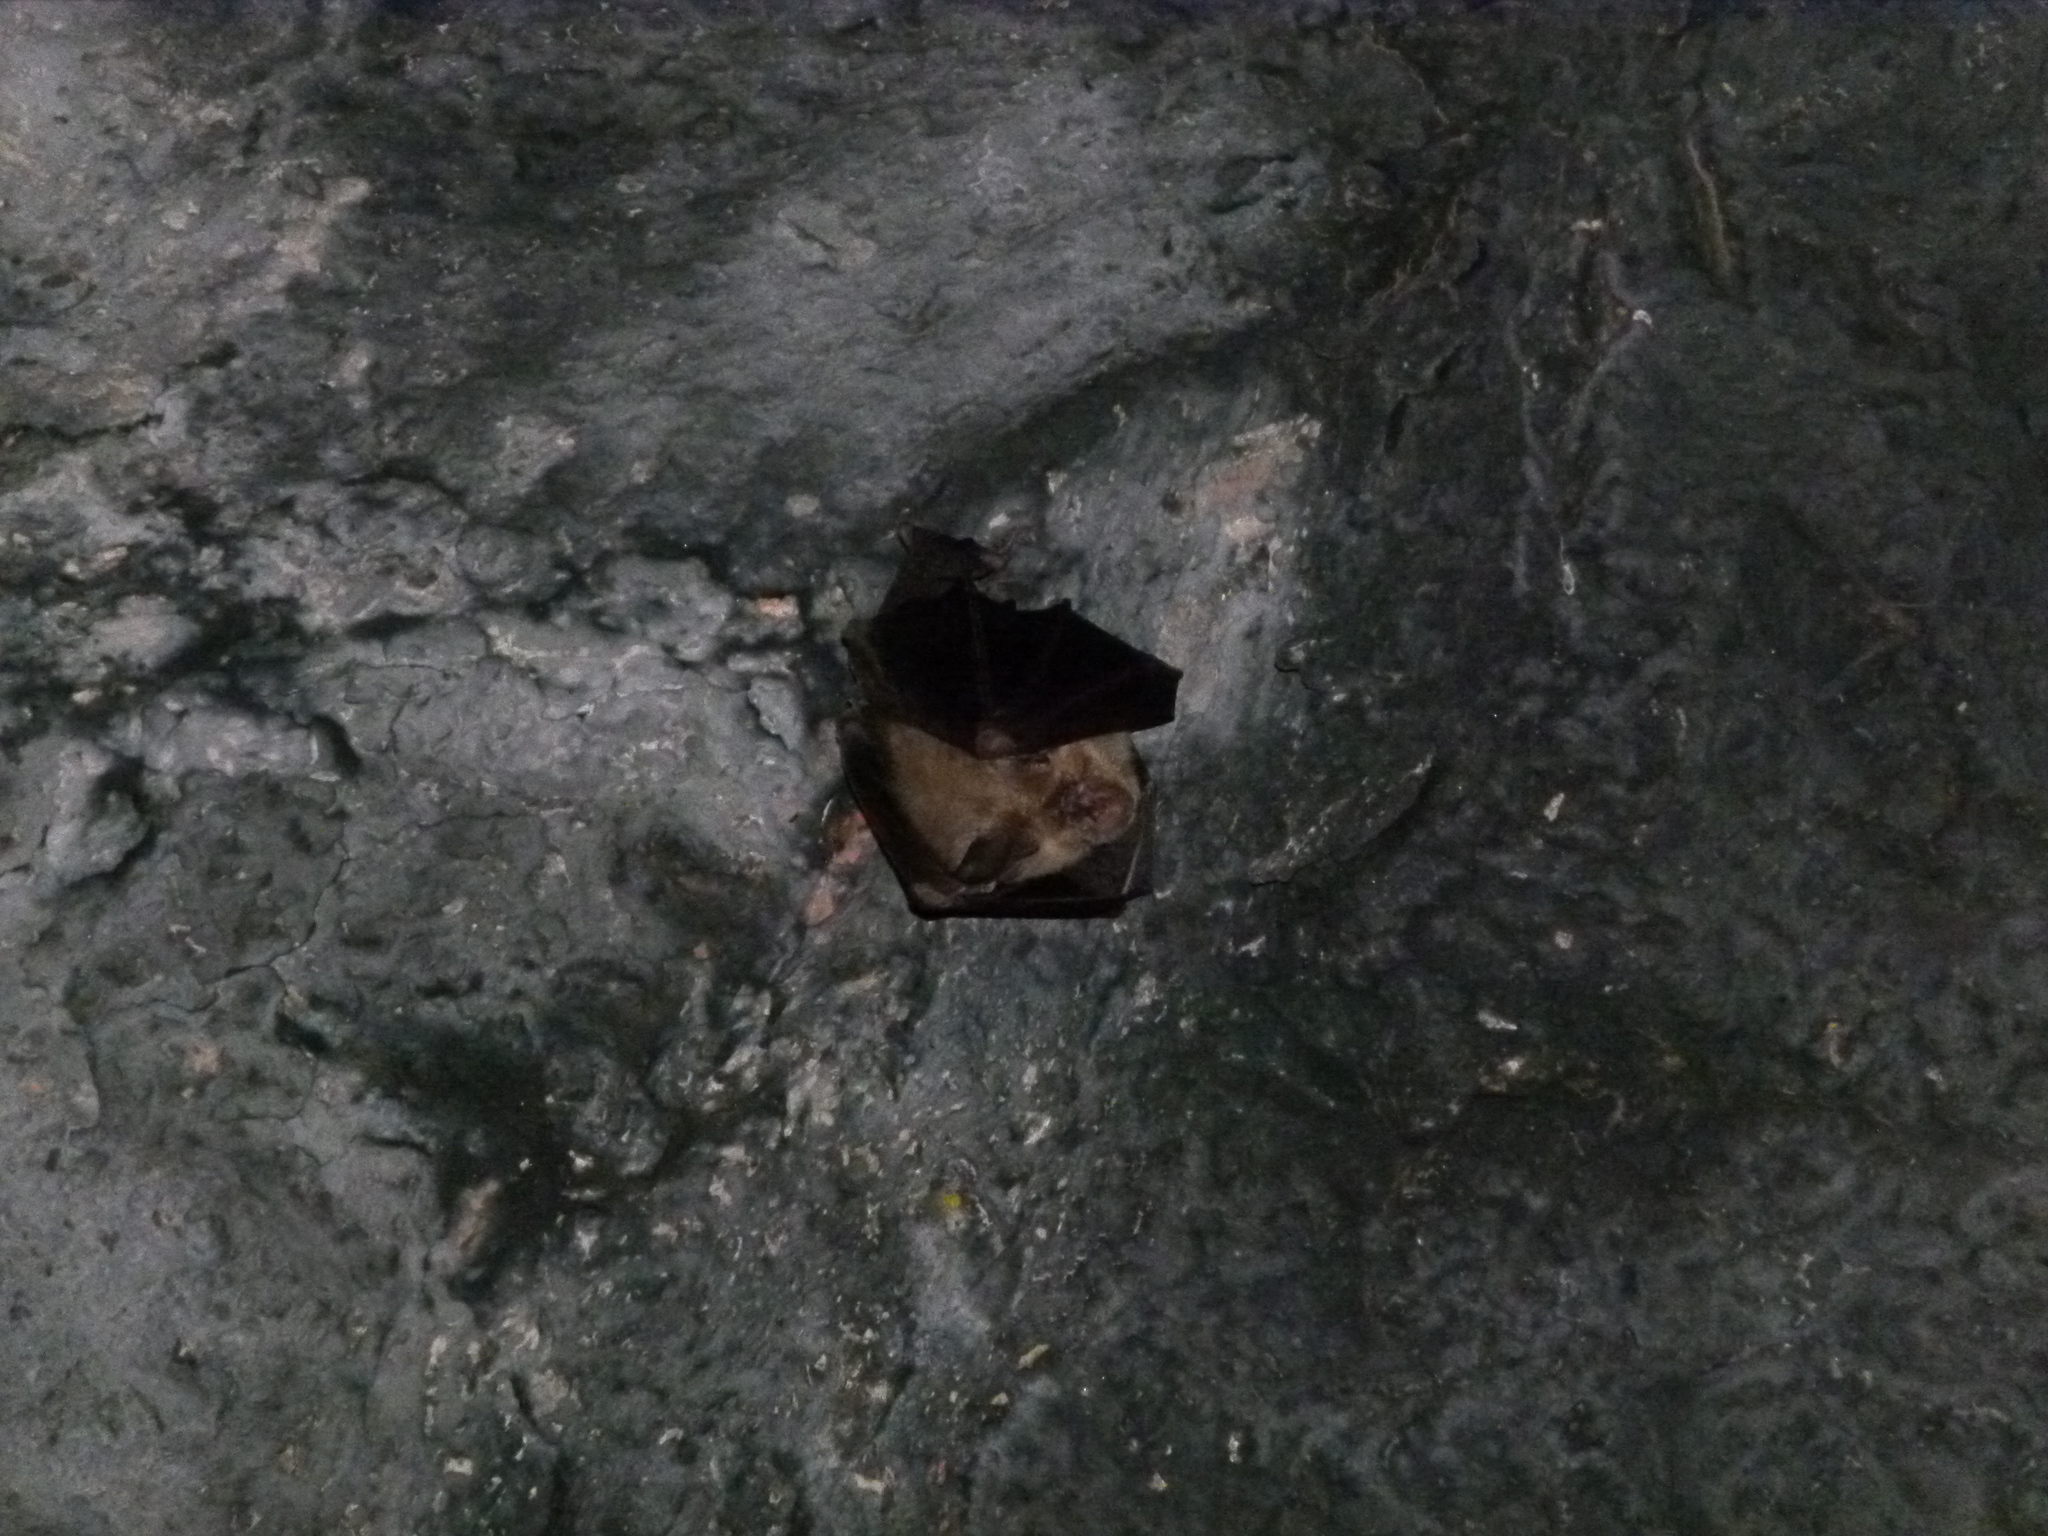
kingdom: Animalia
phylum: Chordata
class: Mammalia
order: Chiroptera
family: Rhinolophidae
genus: Rhinolophus
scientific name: Rhinolophus hipposideros
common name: Lesser horseshoe bat
